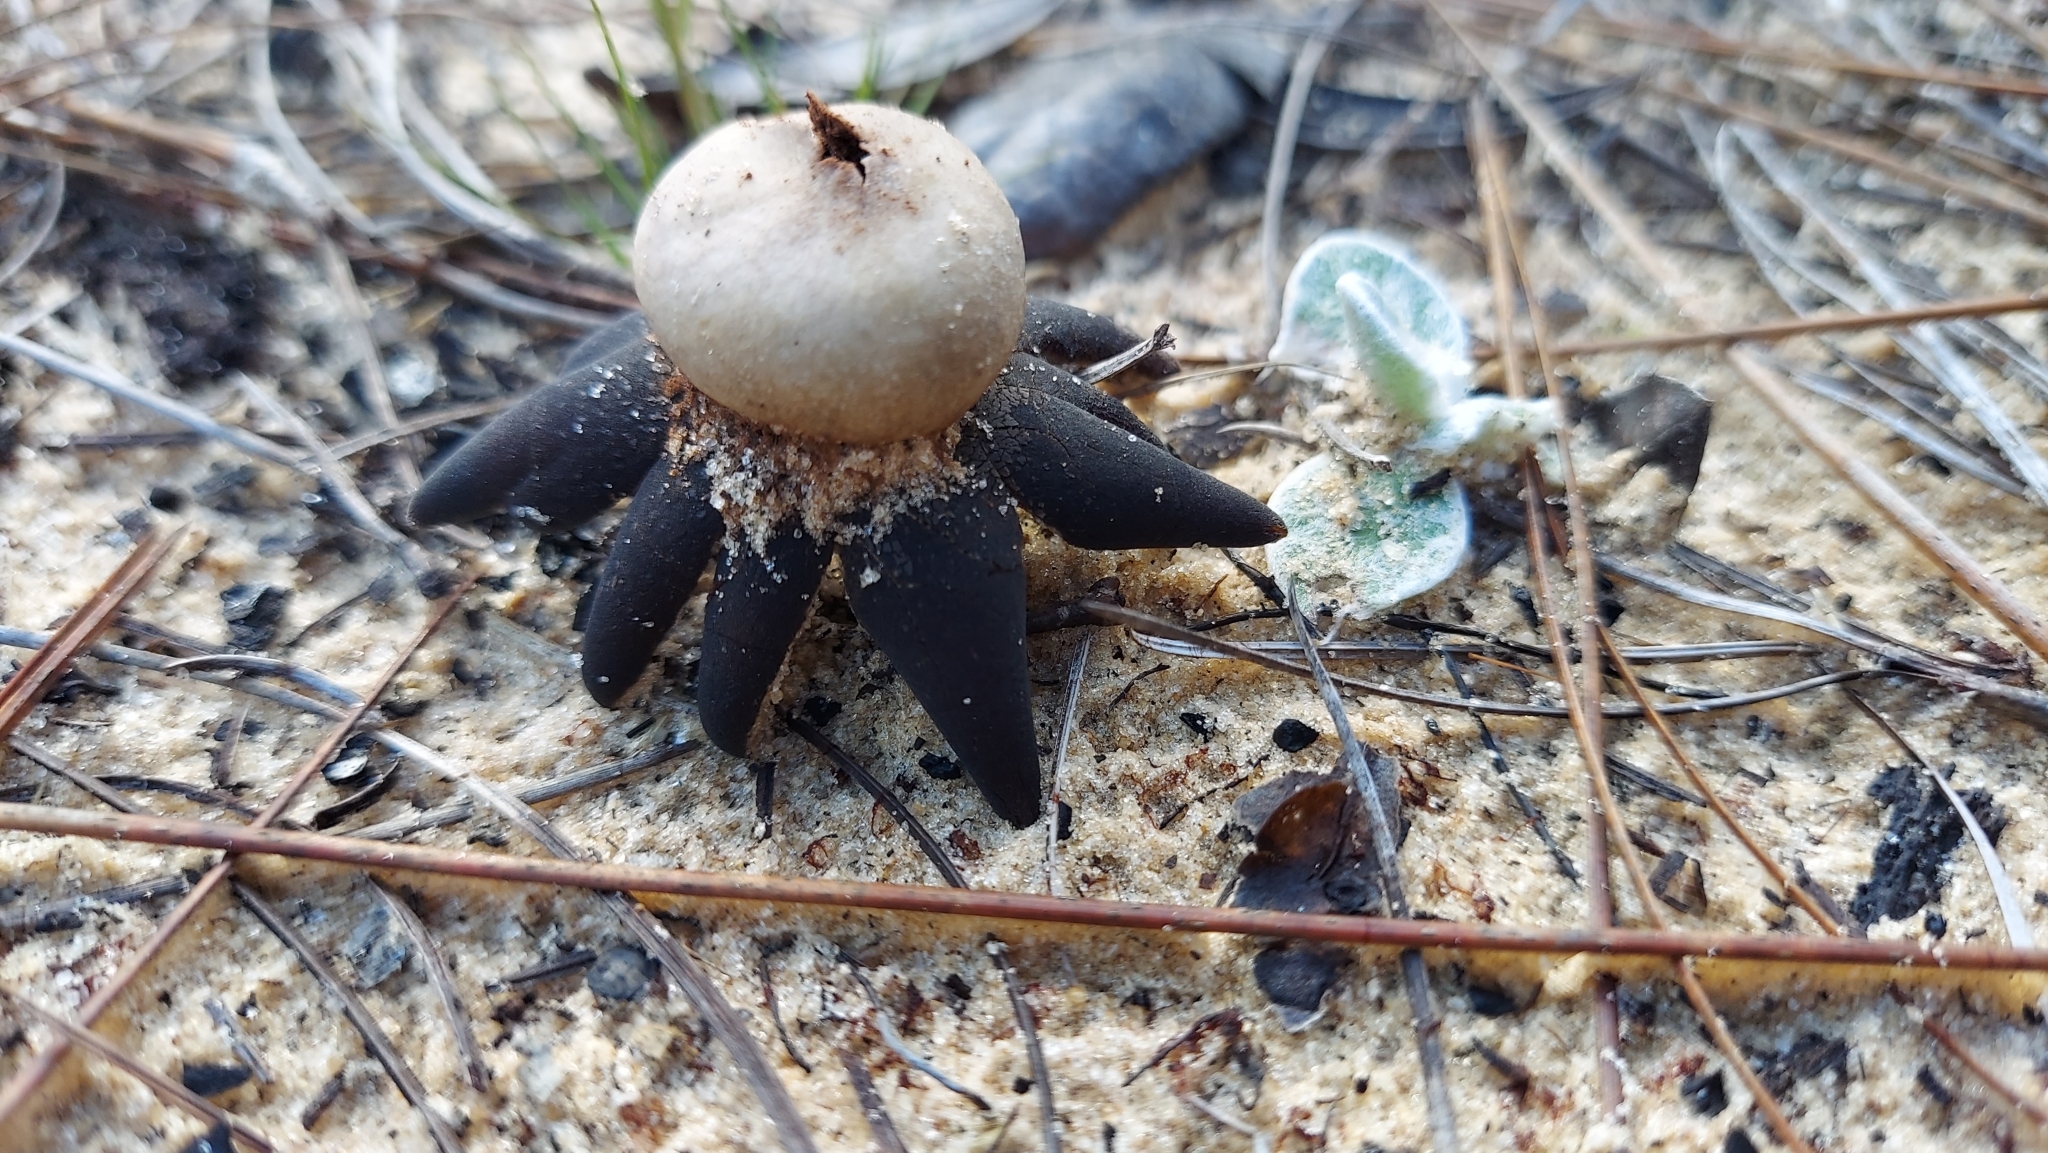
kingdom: Fungi
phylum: Basidiomycota
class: Agaricomycetes
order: Boletales
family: Diplocystidiaceae
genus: Astraeus
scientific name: Astraeus morganii
